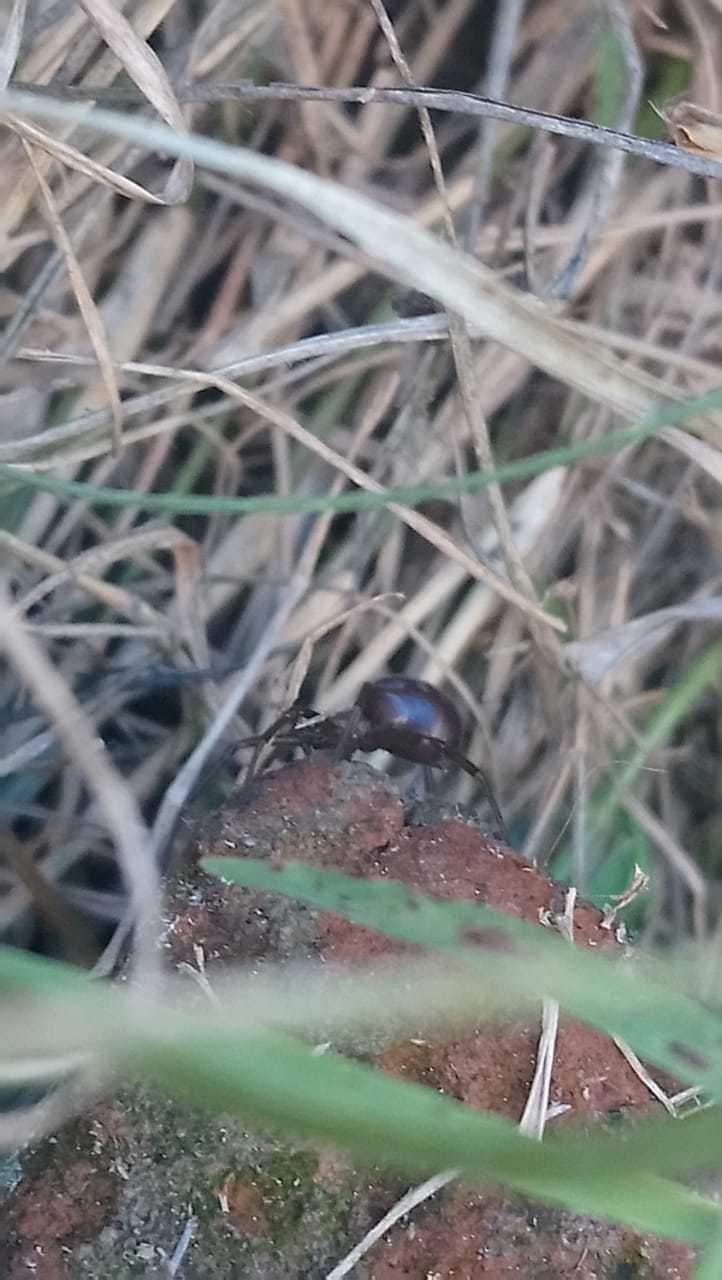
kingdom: Animalia
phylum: Arthropoda
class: Arachnida
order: Araneae
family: Theridiidae
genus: Steatoda
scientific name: Steatoda grossa
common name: False black widow
